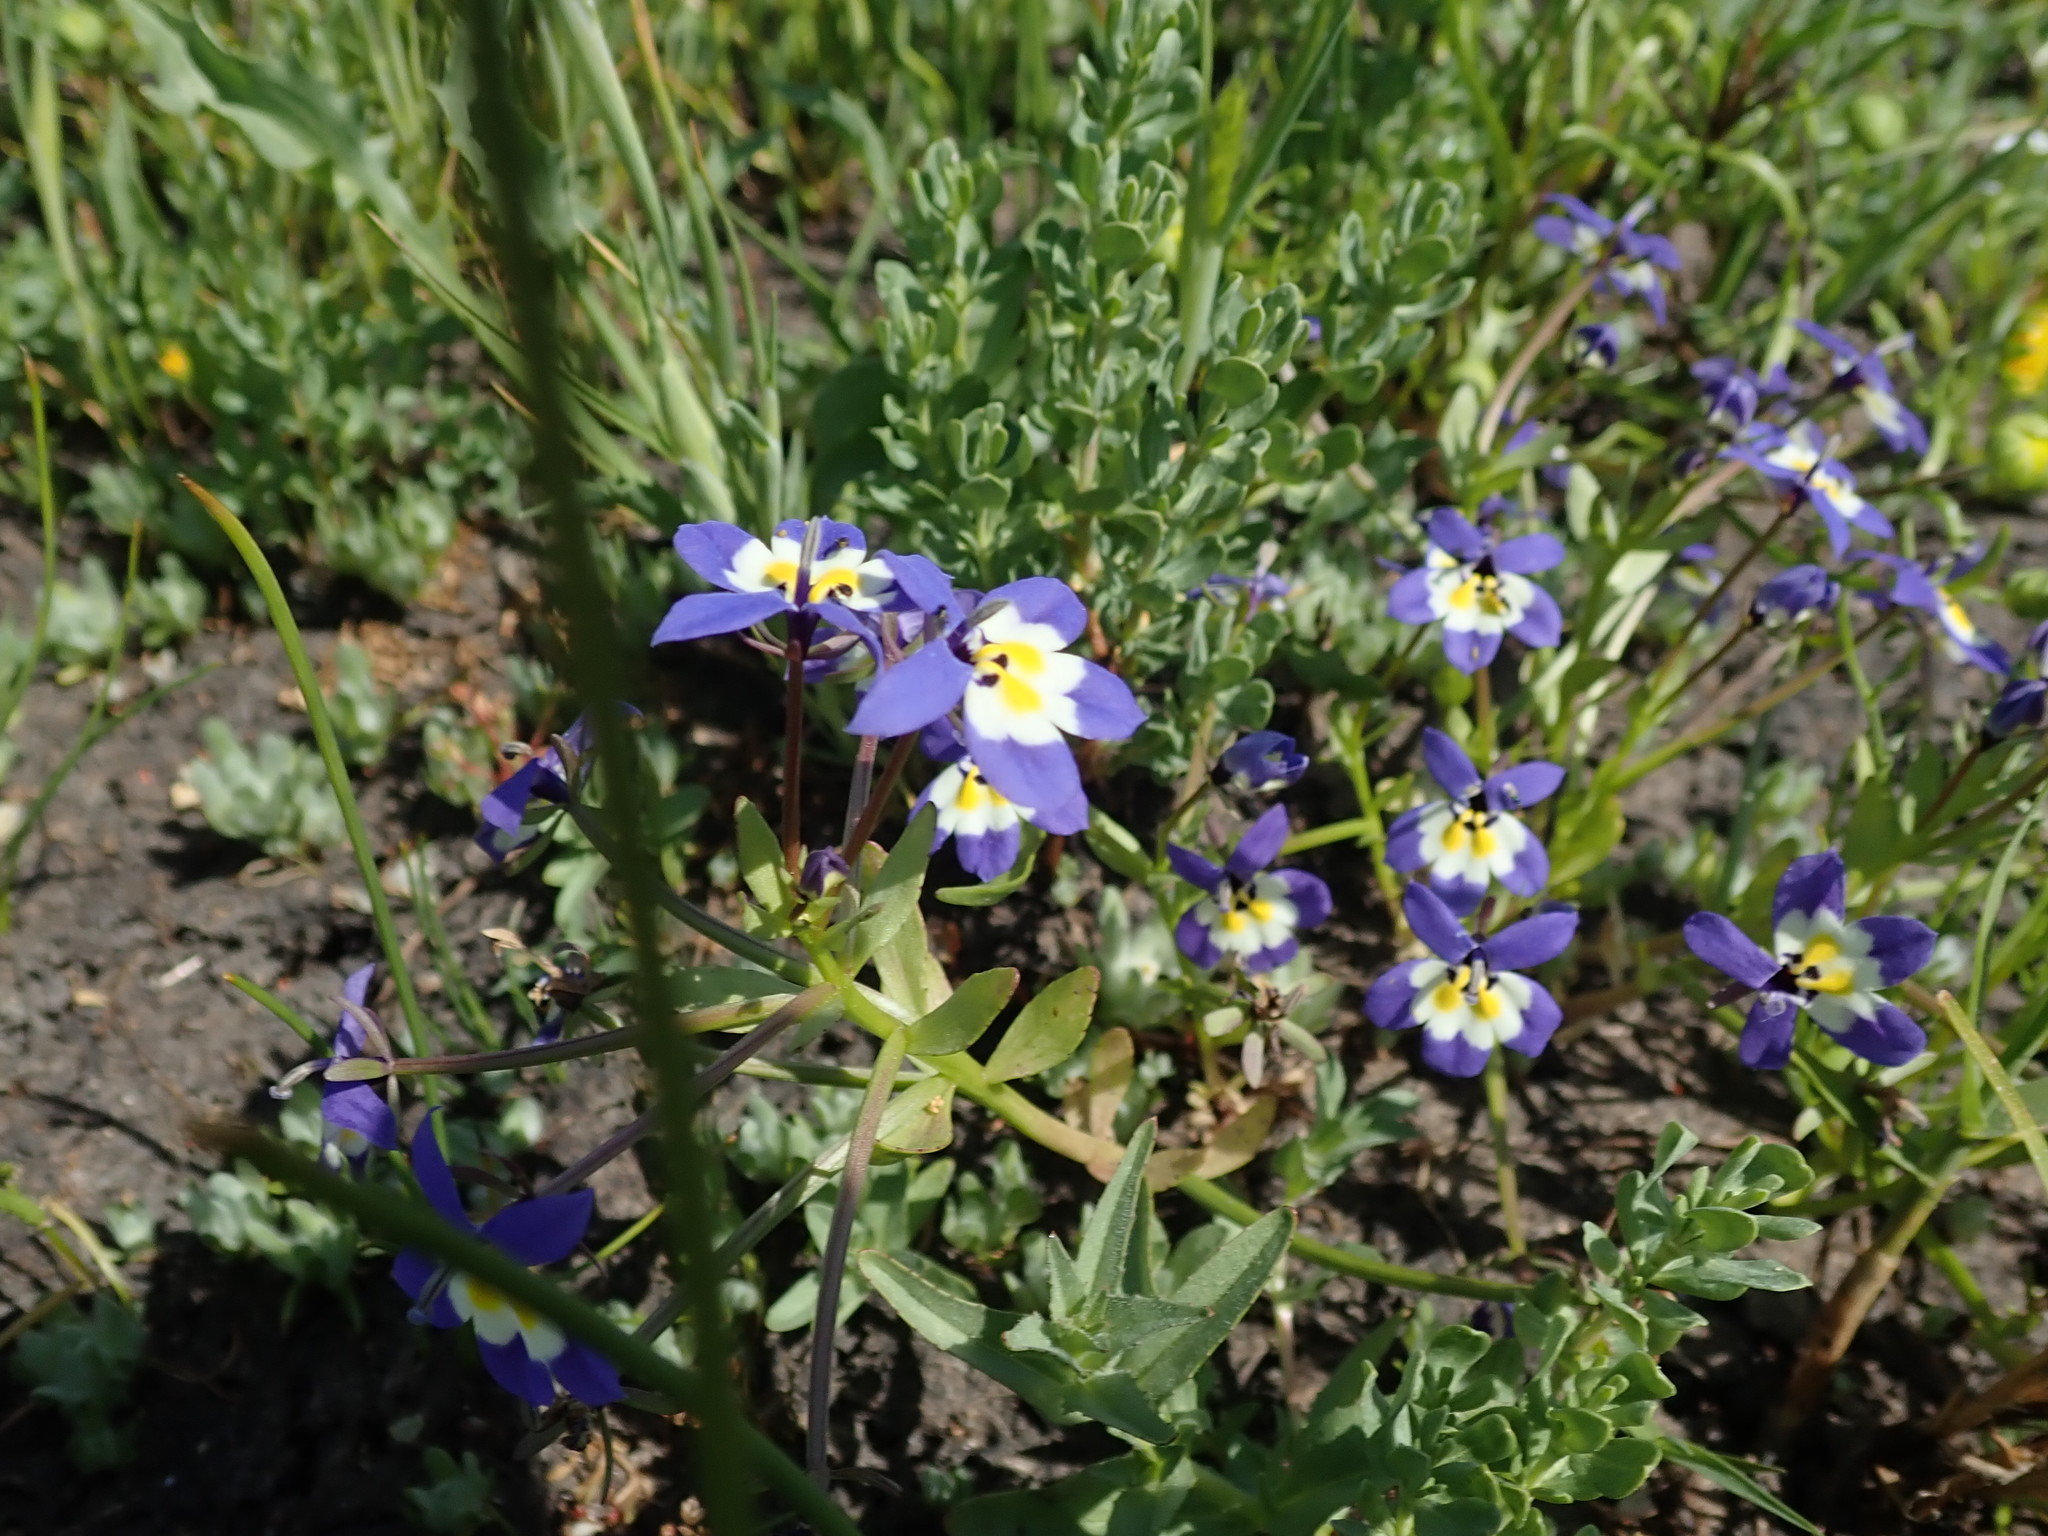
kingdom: Plantae
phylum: Tracheophyta
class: Magnoliopsida
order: Asterales
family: Campanulaceae
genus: Downingia
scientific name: Downingia pulchella
